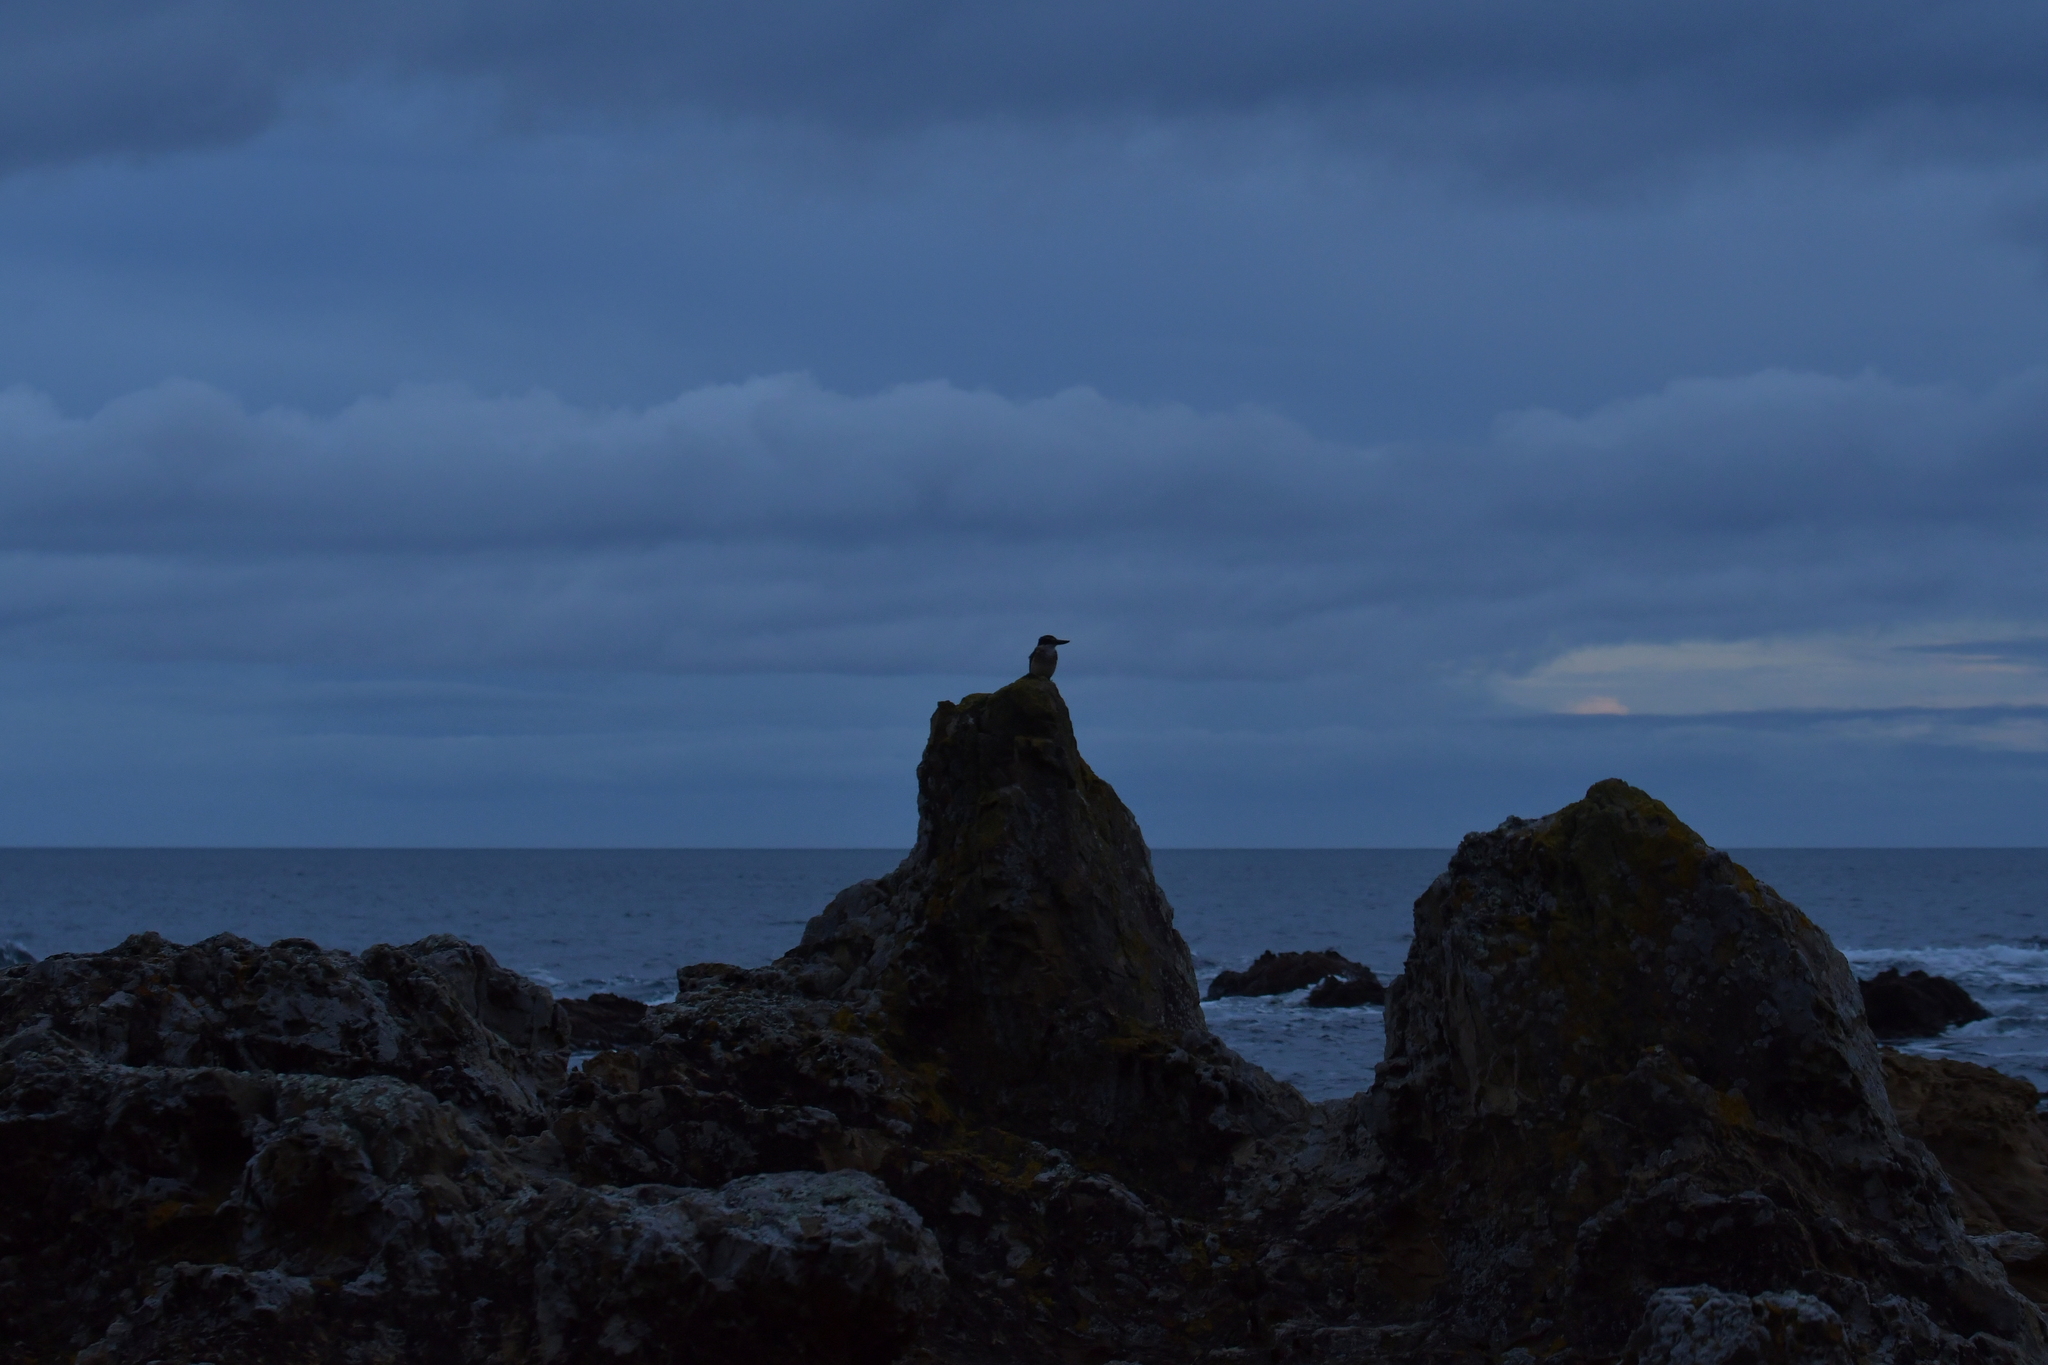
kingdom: Animalia
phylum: Chordata
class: Aves
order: Coraciiformes
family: Alcedinidae
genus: Todiramphus
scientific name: Todiramphus sanctus
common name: Sacred kingfisher
